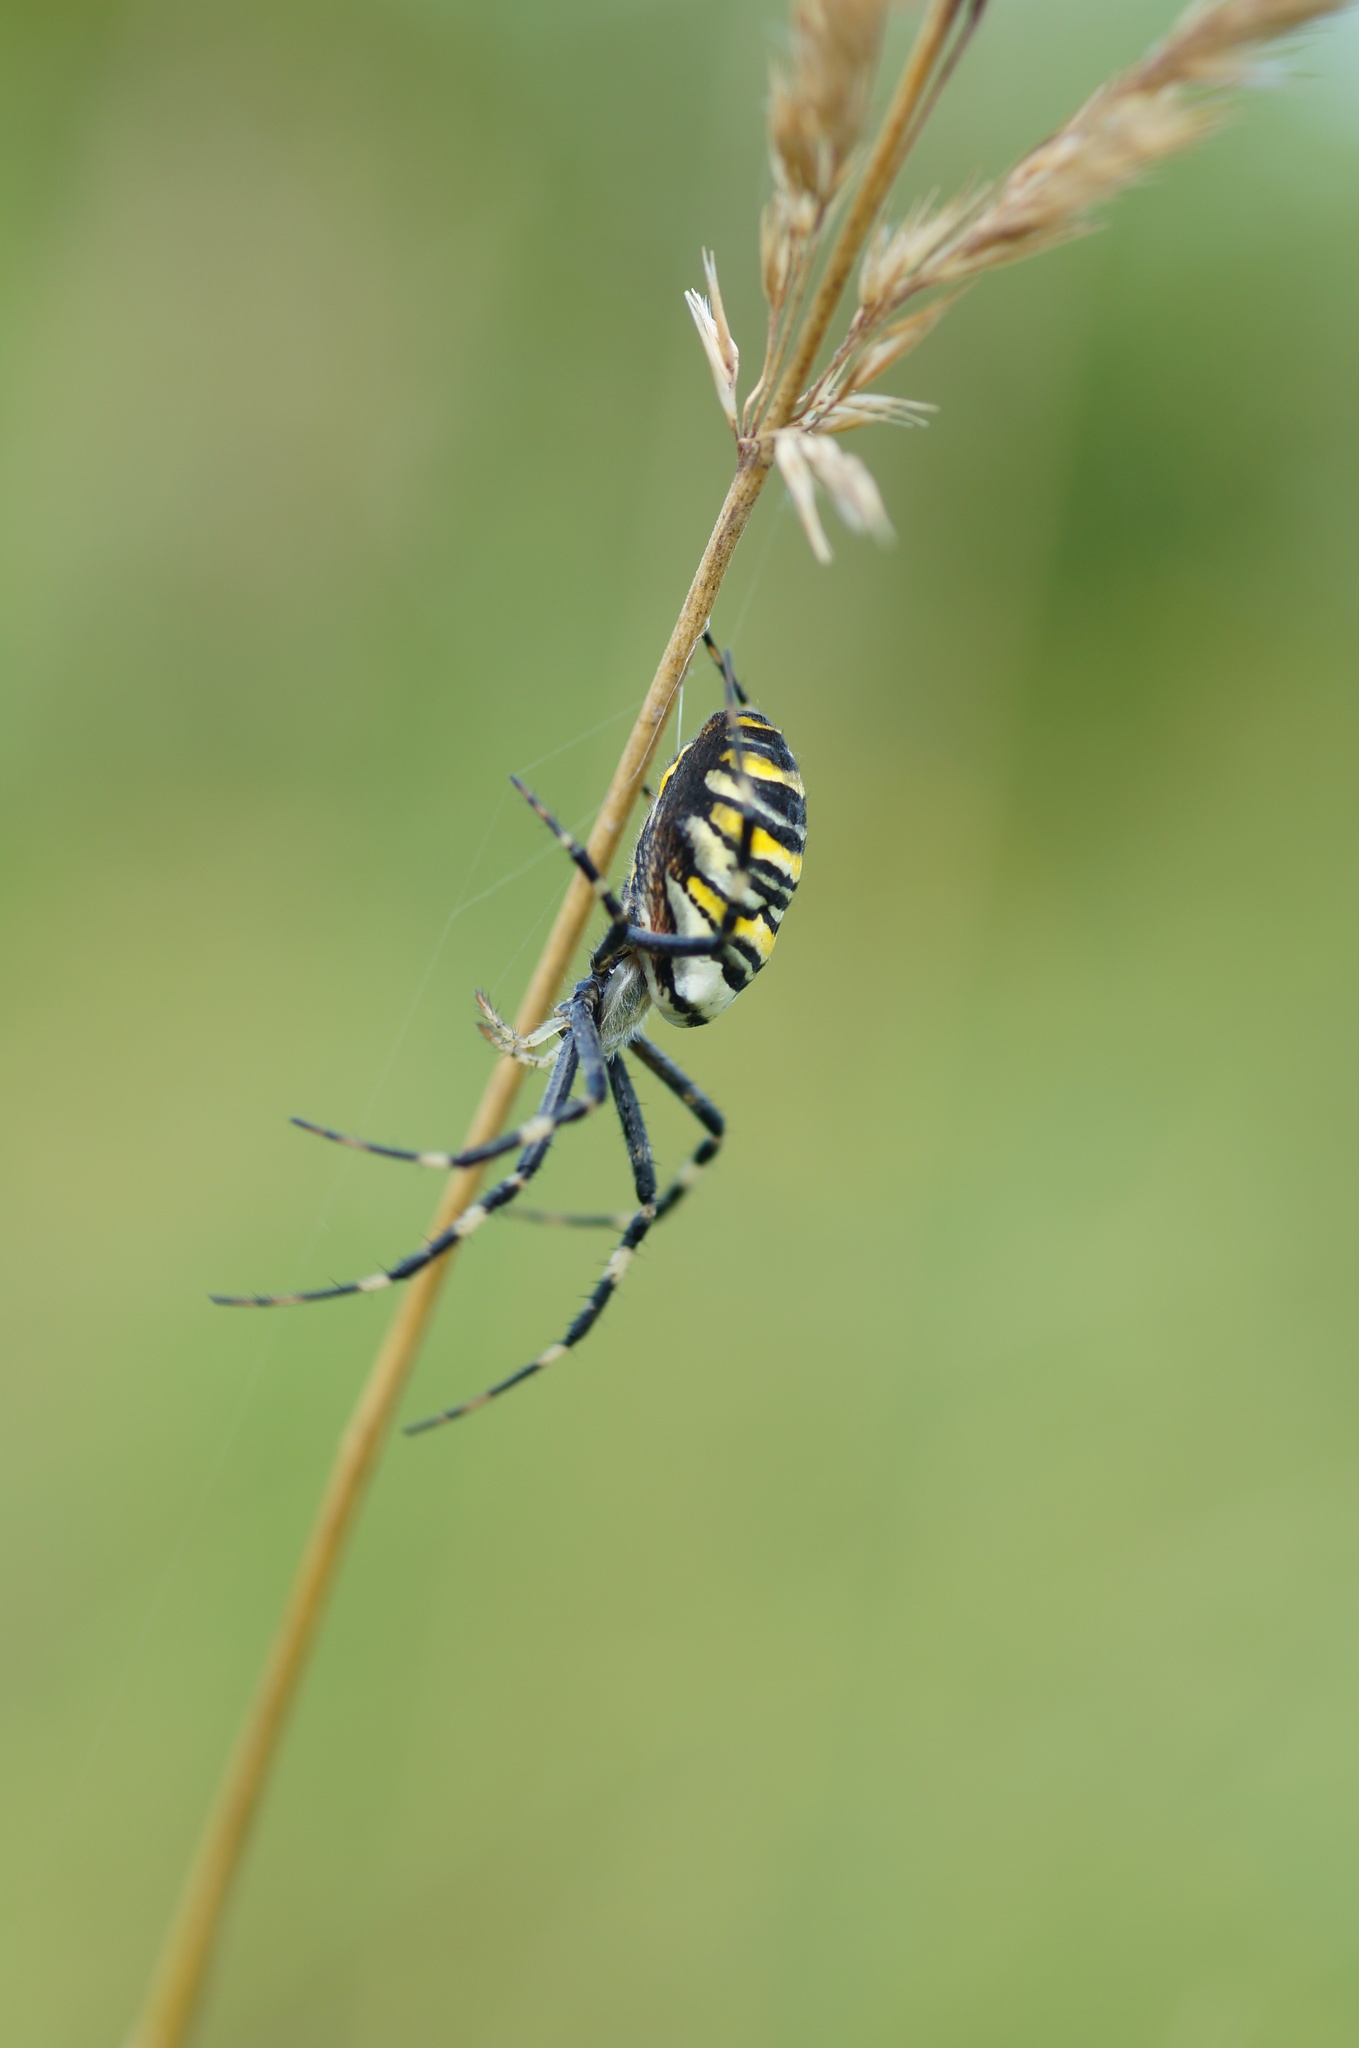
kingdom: Animalia
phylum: Arthropoda
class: Arachnida
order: Araneae
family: Araneidae
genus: Argiope
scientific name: Argiope bruennichi
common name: Wasp spider
